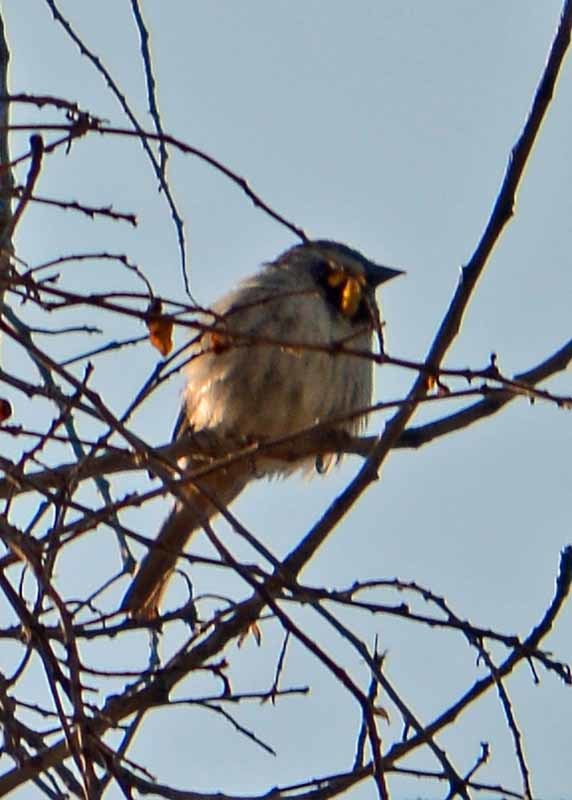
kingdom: Animalia
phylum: Chordata
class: Aves
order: Passeriformes
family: Passeridae
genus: Passer
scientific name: Passer domesticus
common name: House sparrow
